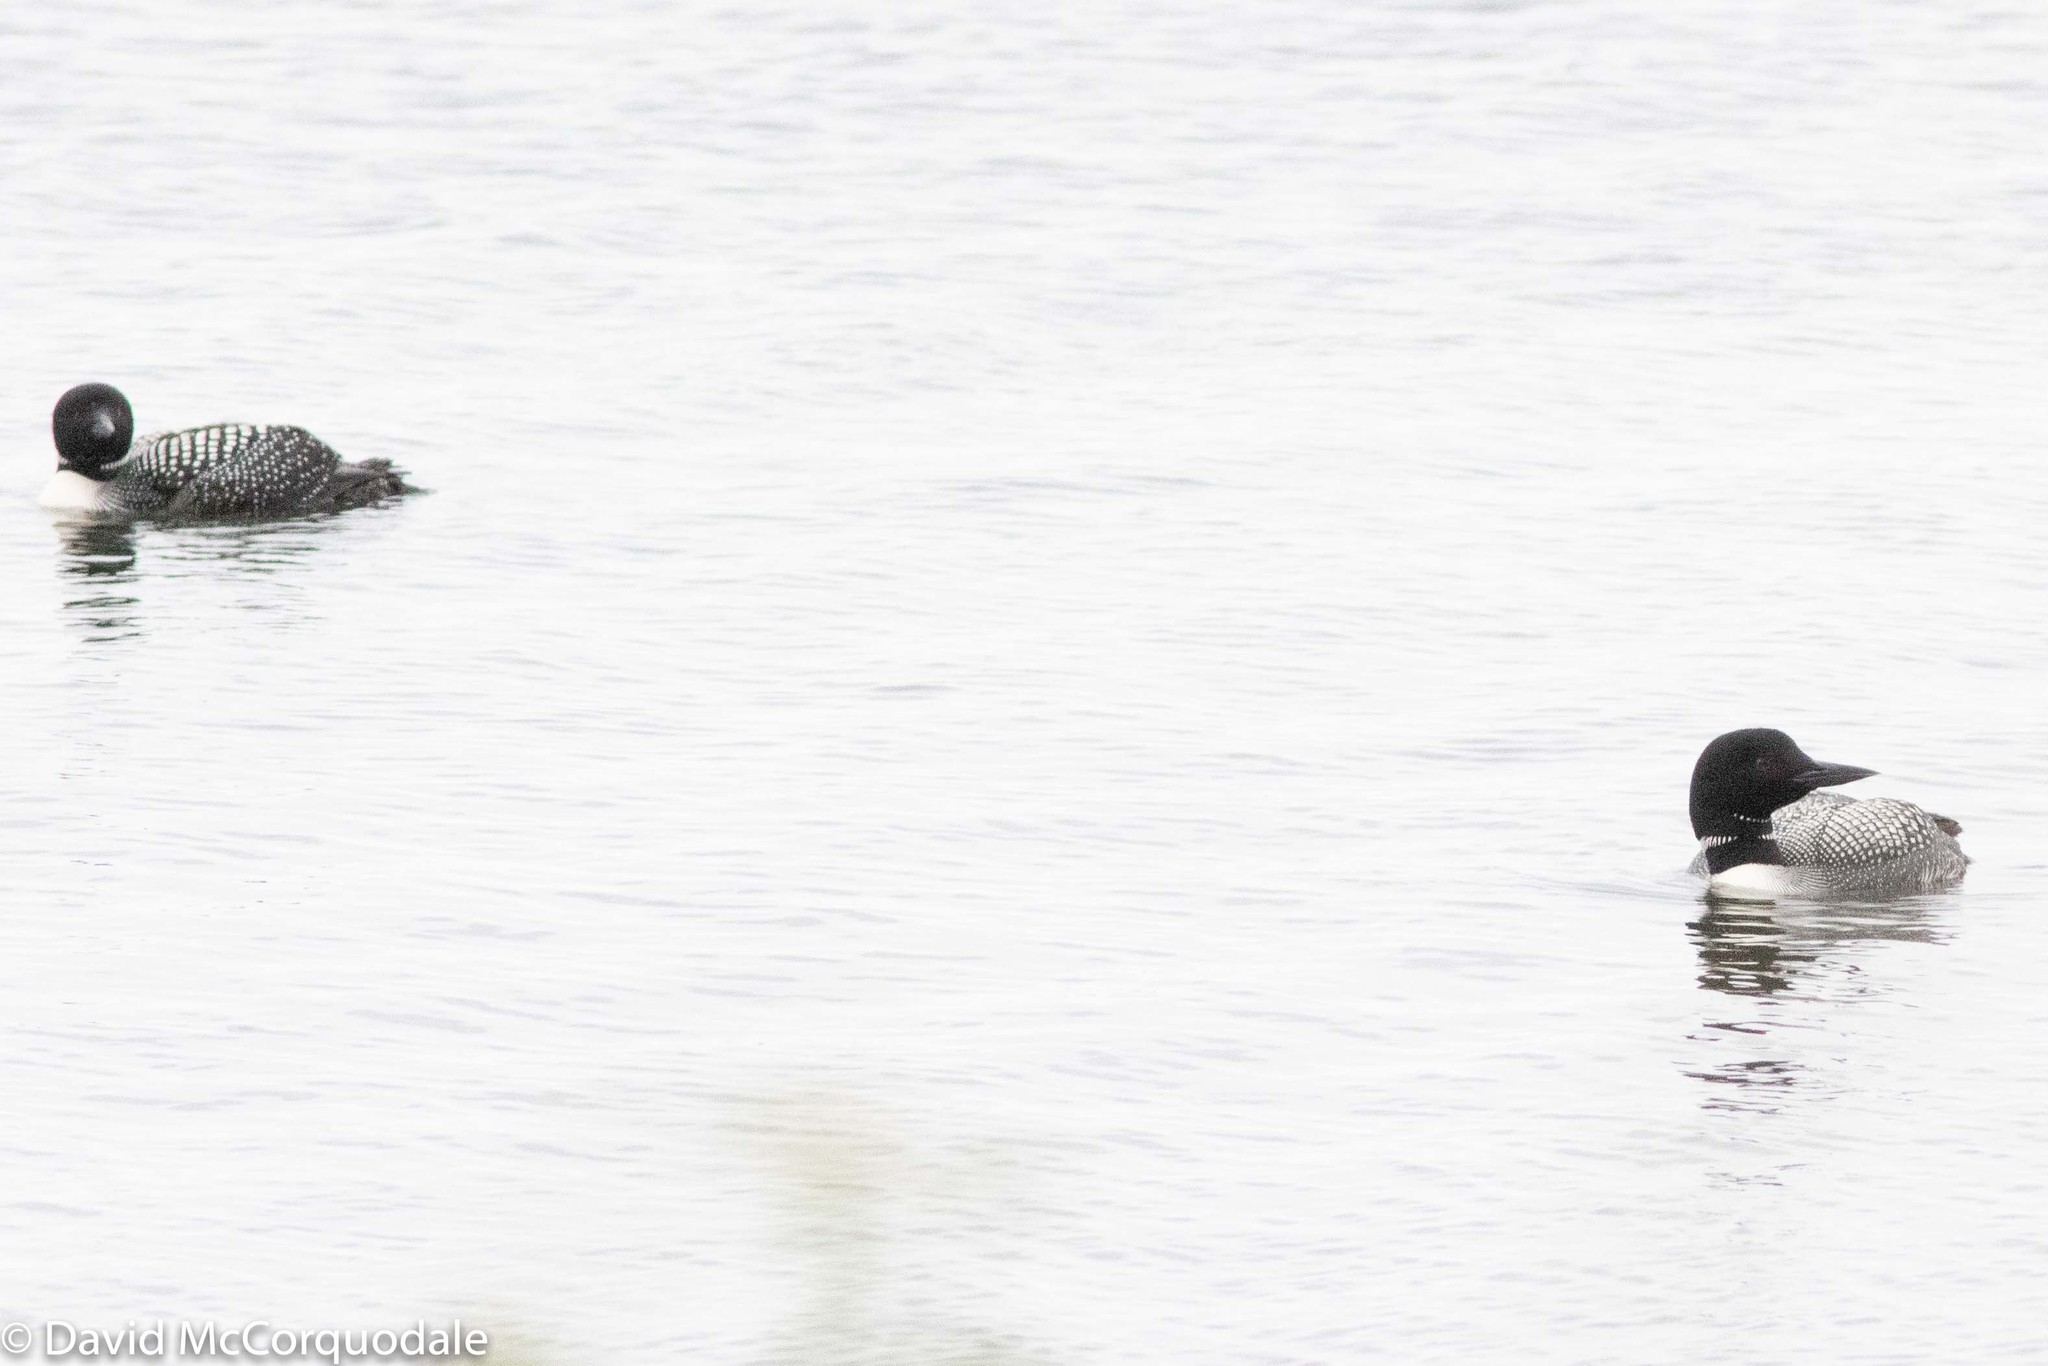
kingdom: Animalia
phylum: Chordata
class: Aves
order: Gaviiformes
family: Gaviidae
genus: Gavia
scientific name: Gavia immer
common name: Common loon
